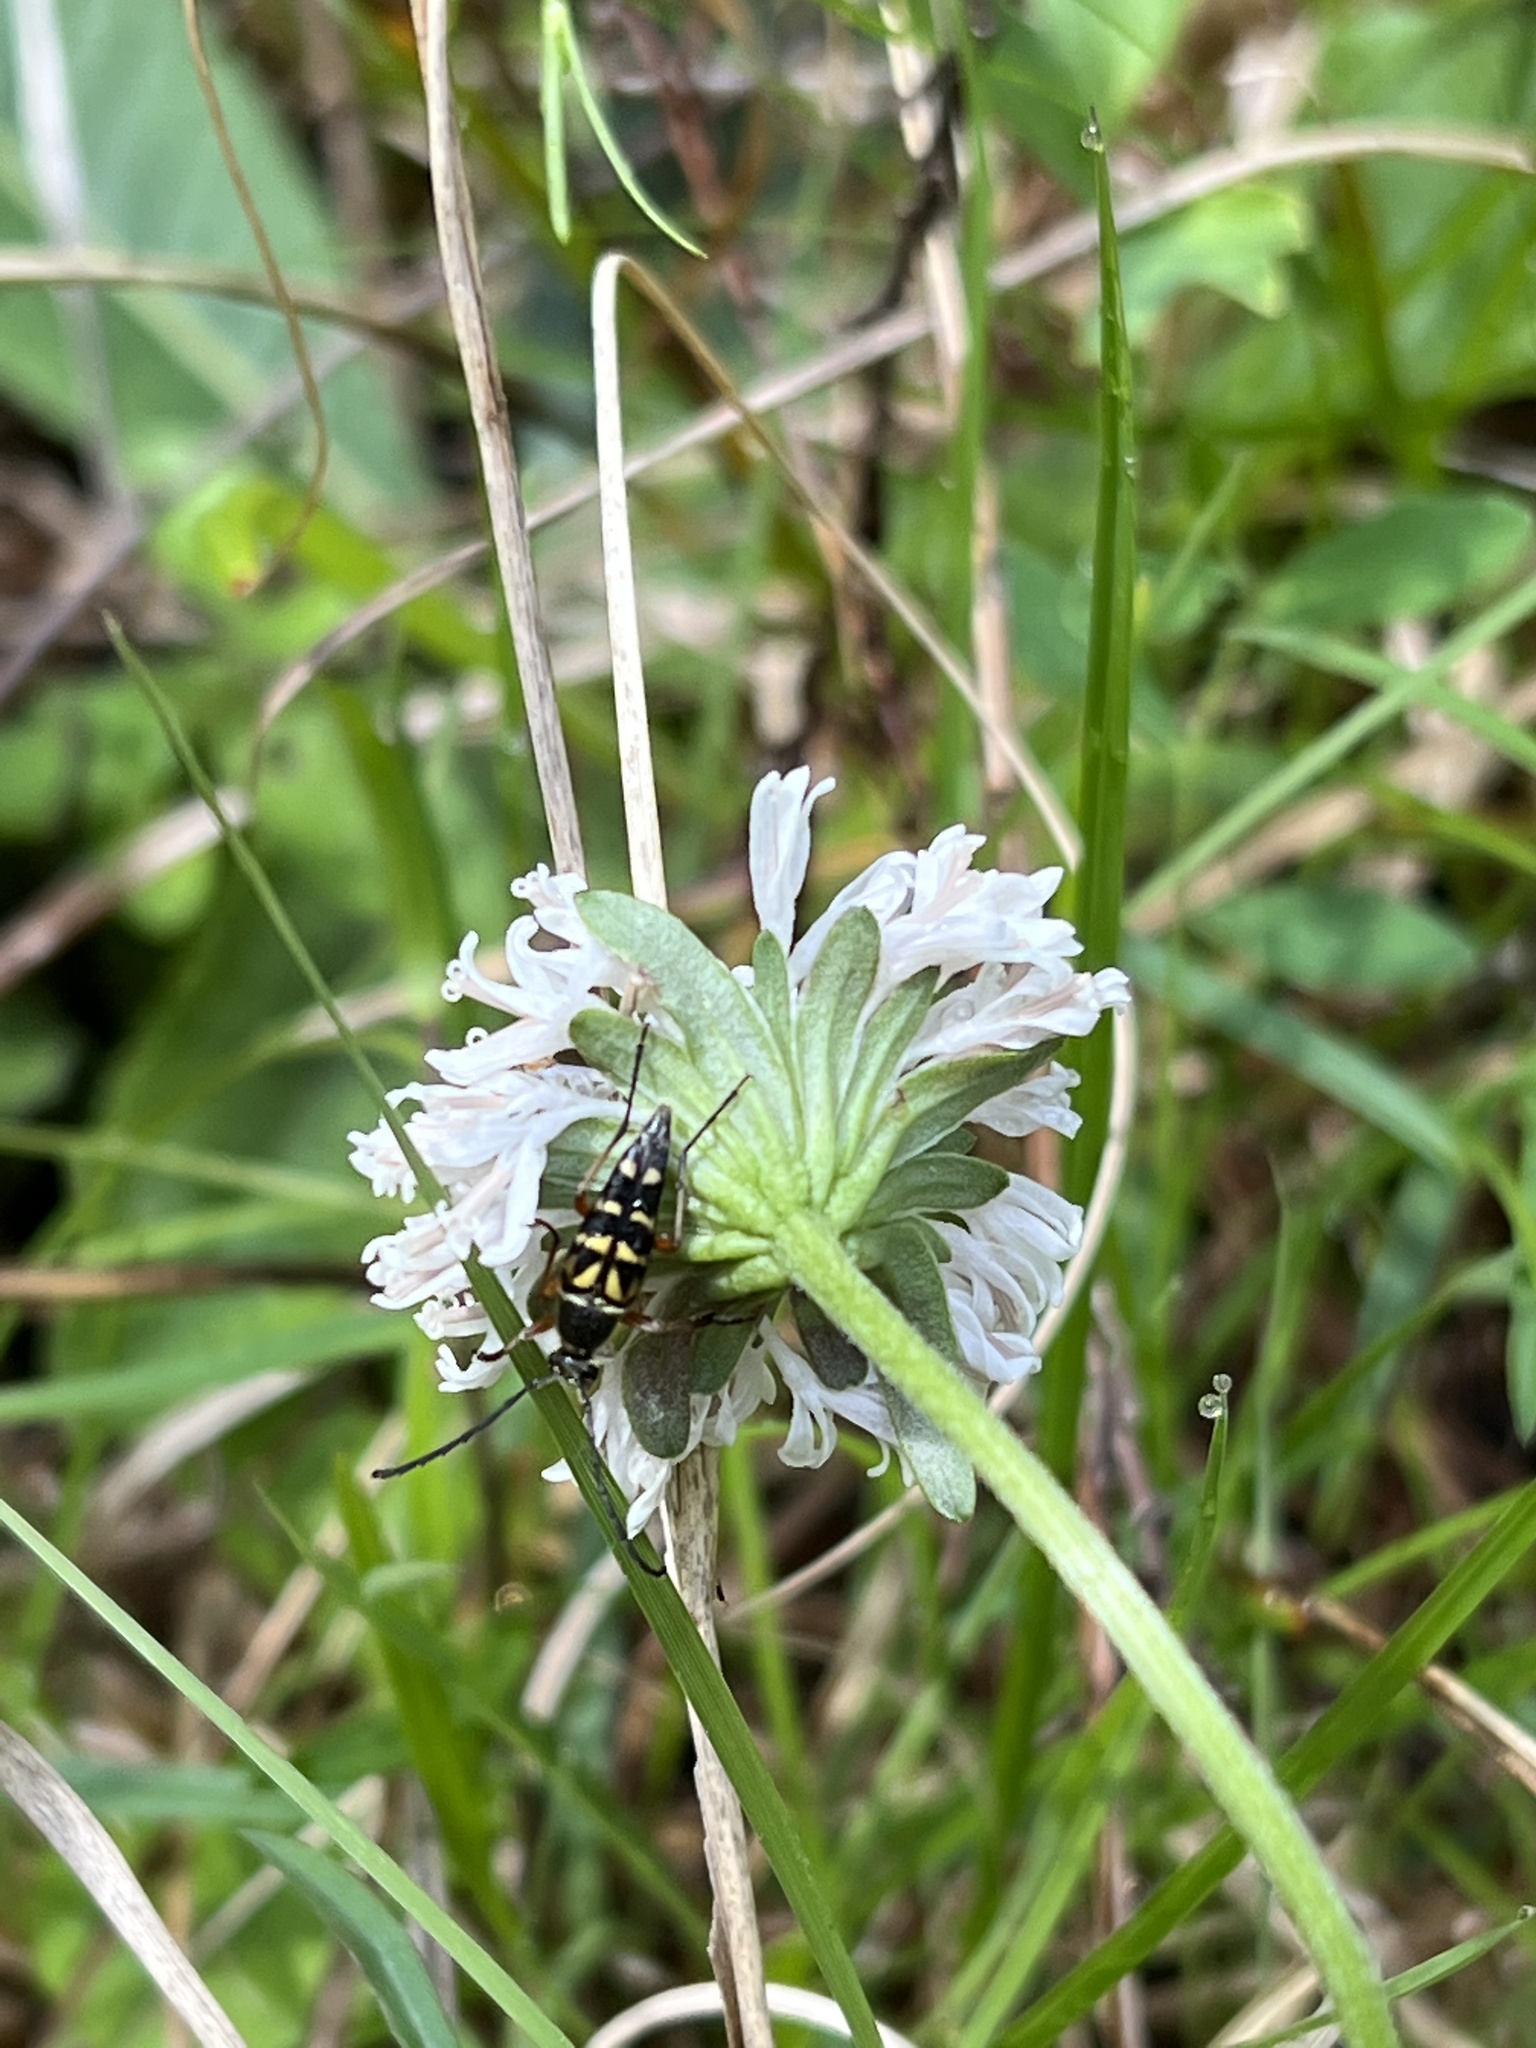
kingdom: Plantae
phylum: Tracheophyta
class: Magnoliopsida
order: Asterales
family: Asteraceae
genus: Marshallia
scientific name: Marshallia obovata
